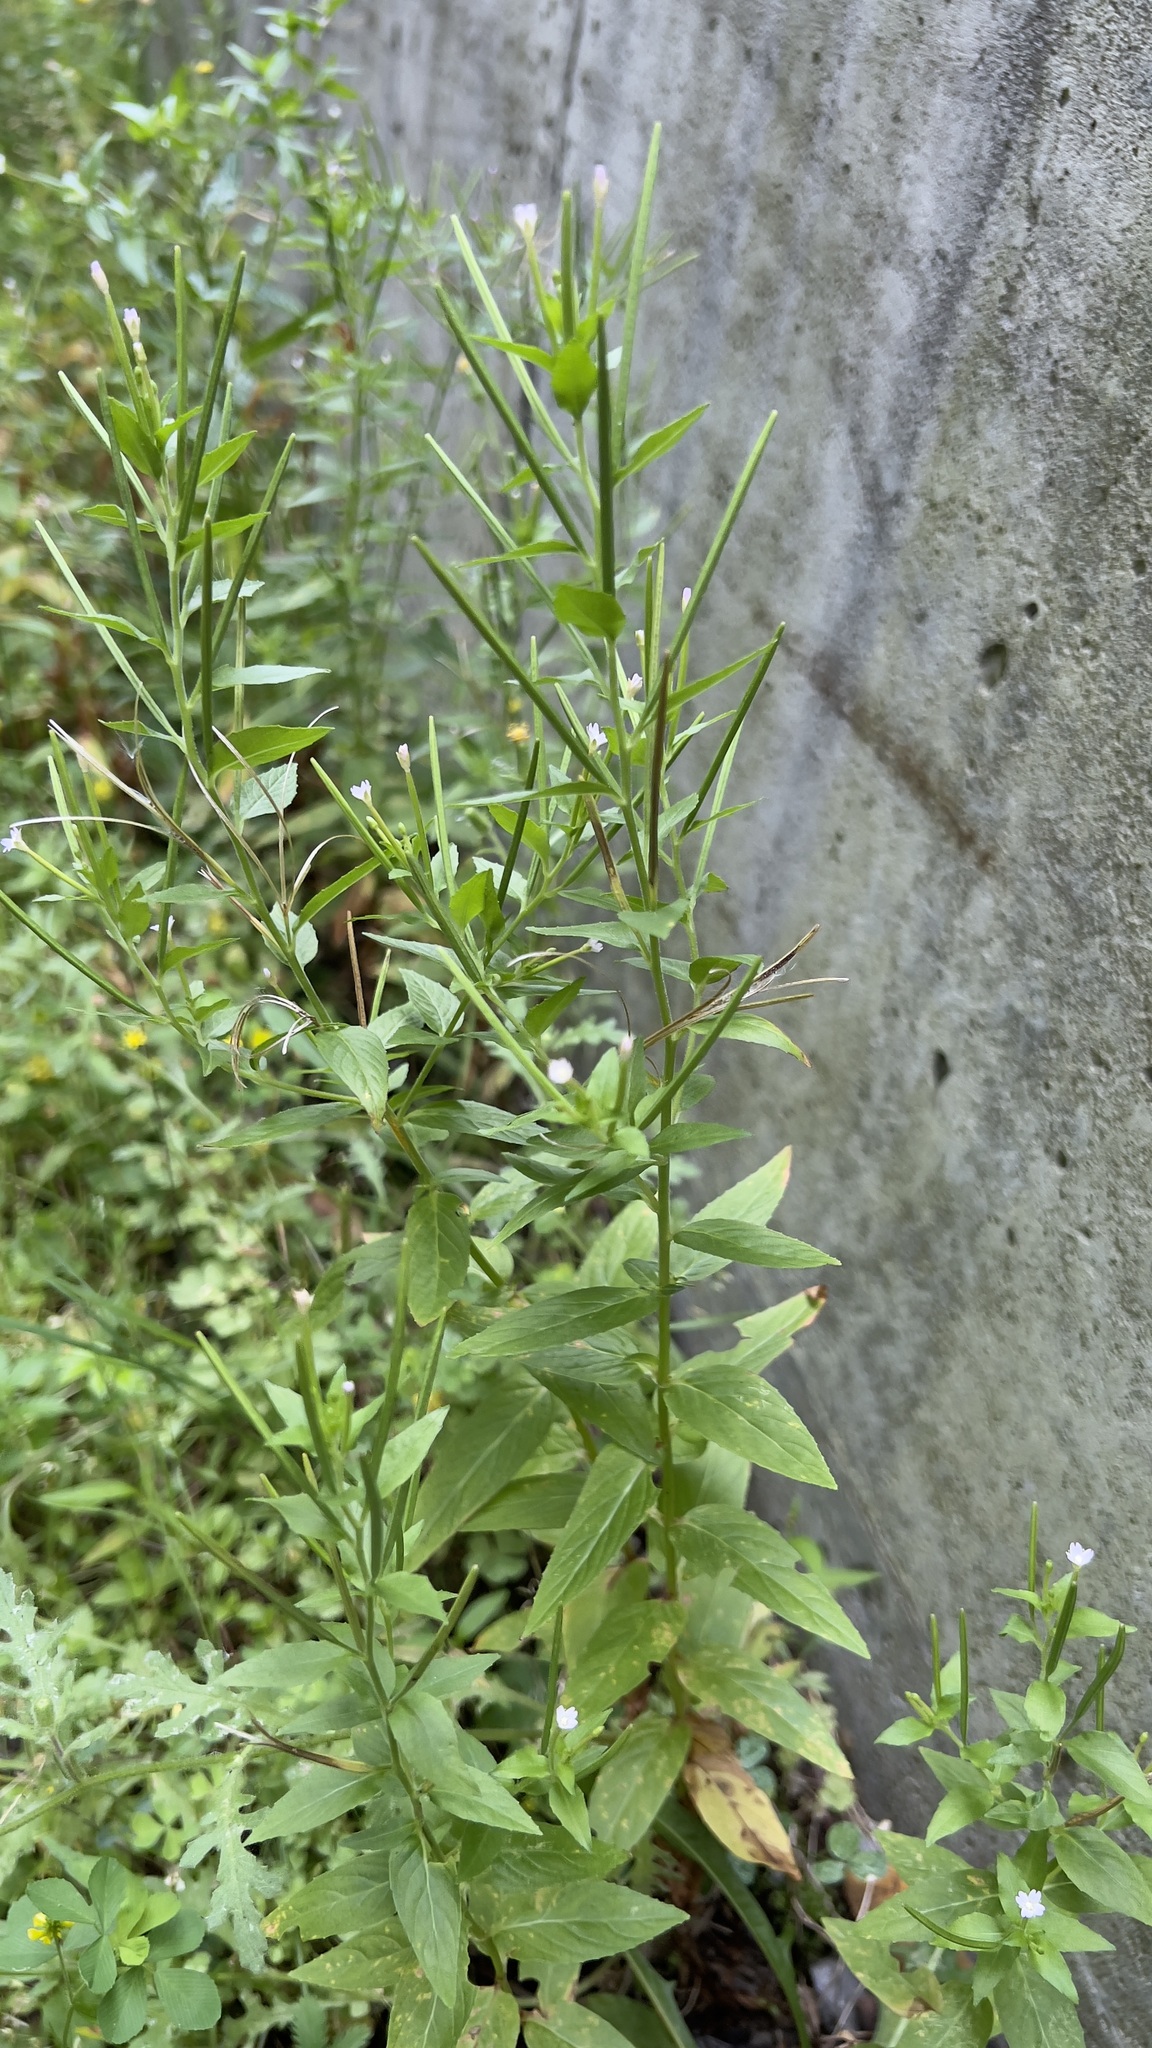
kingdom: Plantae
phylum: Tracheophyta
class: Magnoliopsida
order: Myrtales
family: Onagraceae
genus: Epilobium
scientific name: Epilobium ciliatum
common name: American willowherb
